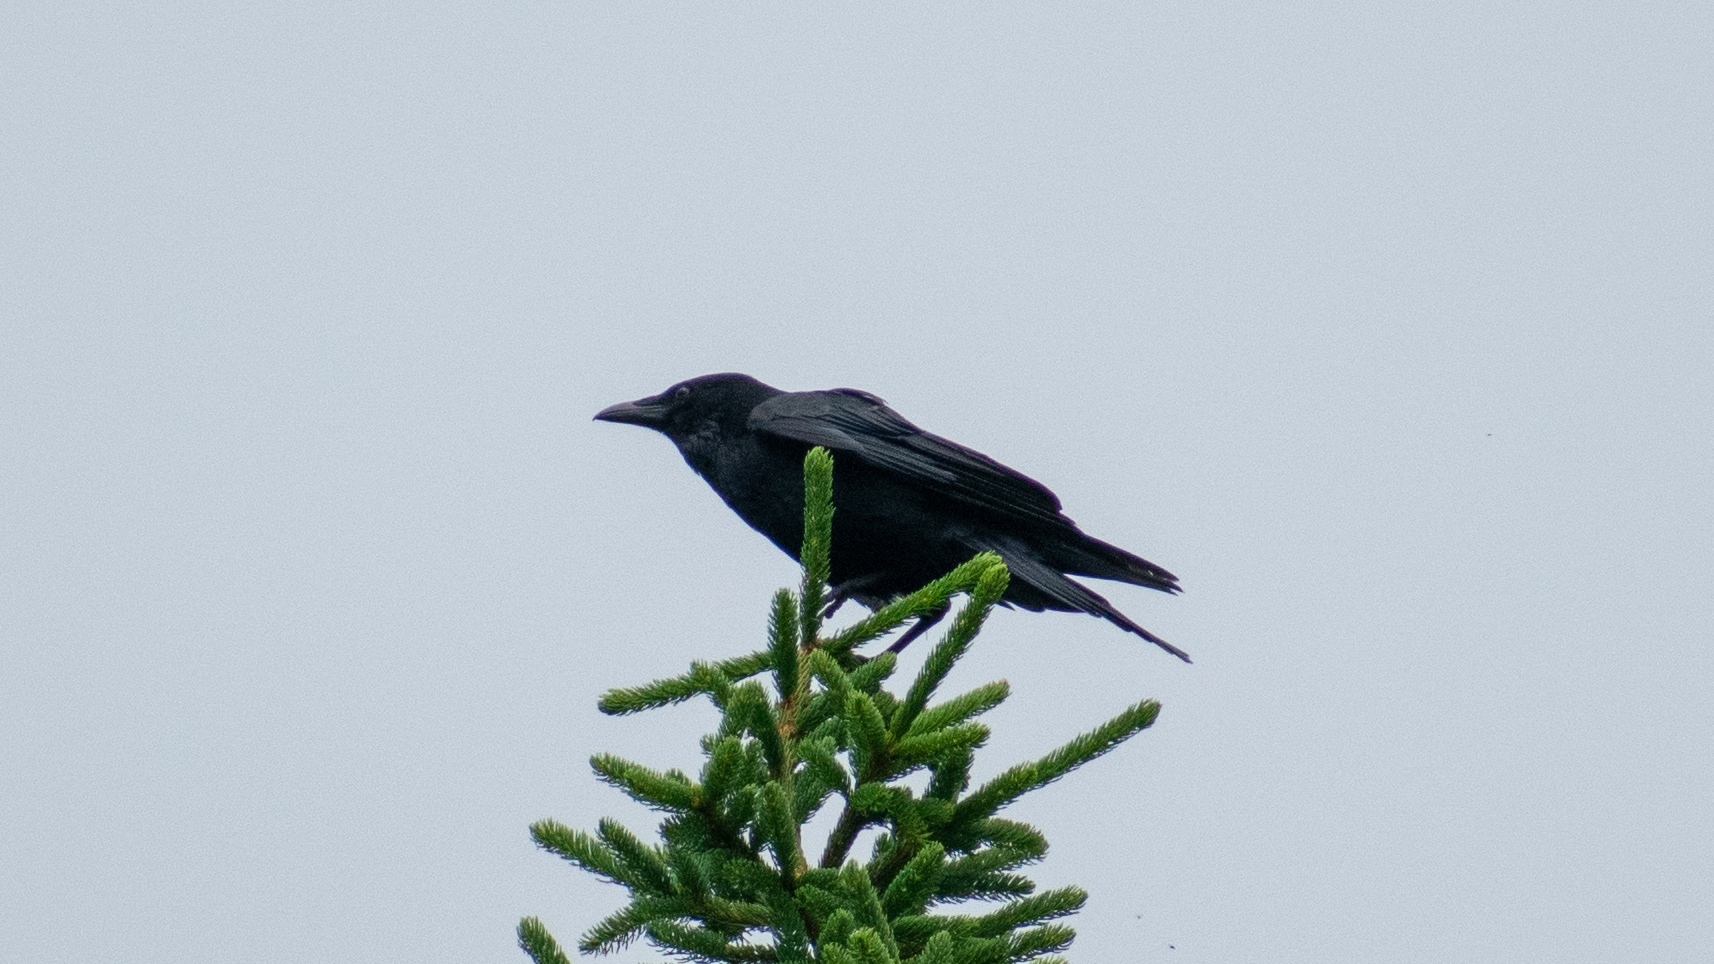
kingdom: Animalia
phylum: Chordata
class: Aves
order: Passeriformes
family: Corvidae
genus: Corvus
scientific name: Corvus corax
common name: Common raven
